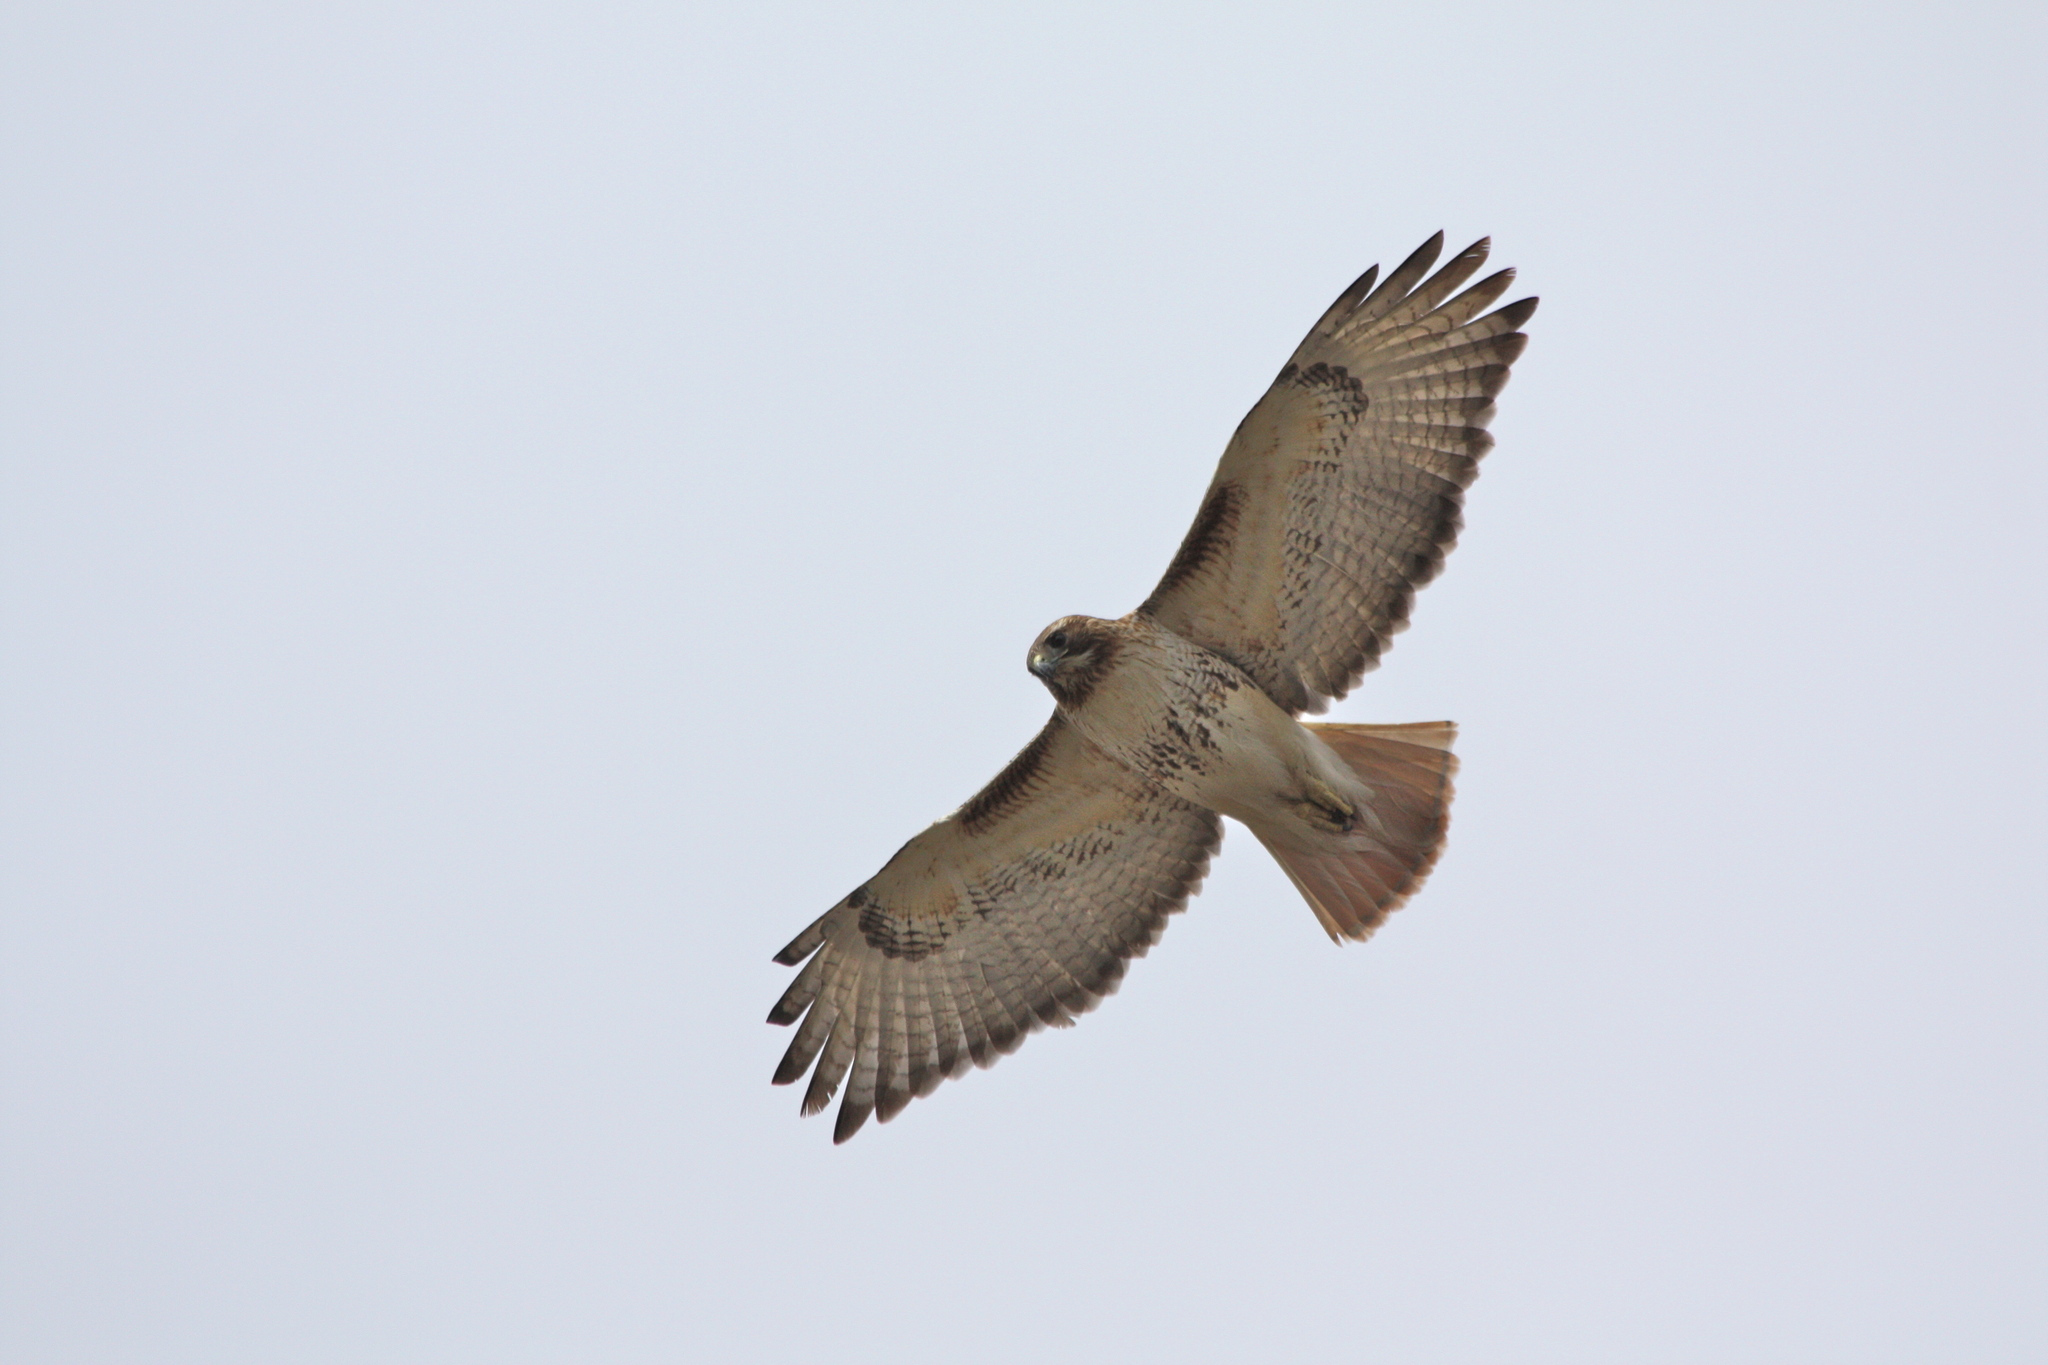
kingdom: Animalia
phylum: Chordata
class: Aves
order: Accipitriformes
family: Accipitridae
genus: Buteo
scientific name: Buteo jamaicensis
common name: Red-tailed hawk
